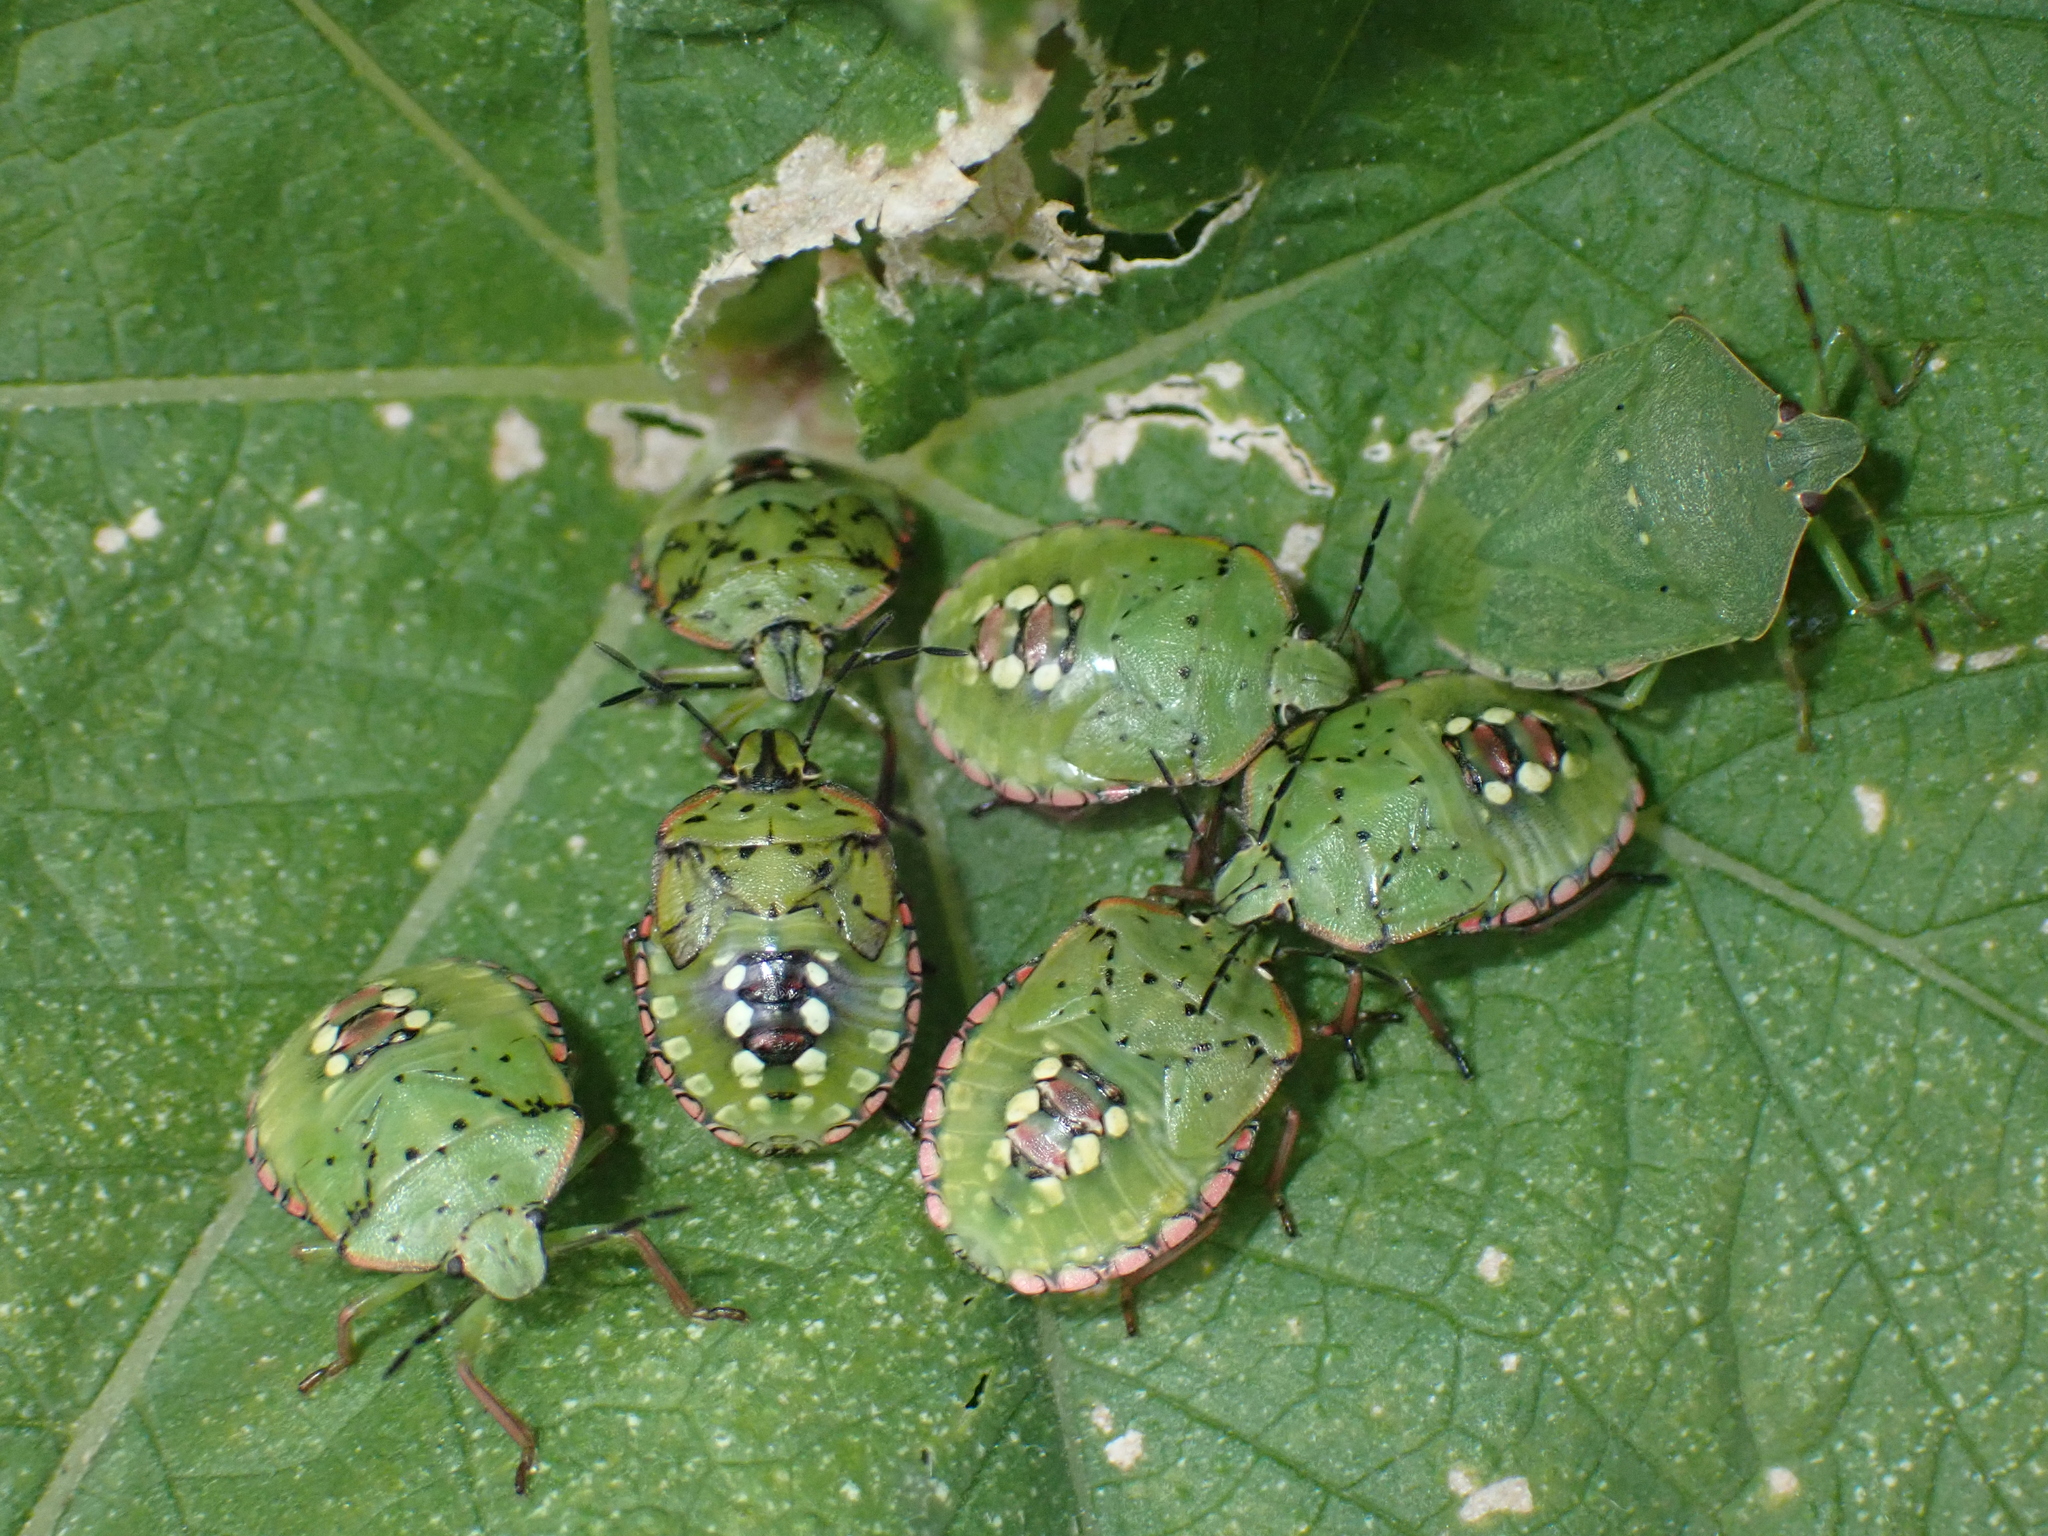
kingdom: Animalia
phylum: Arthropoda
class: Insecta
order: Hemiptera
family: Pentatomidae
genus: Nezara
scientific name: Nezara viridula
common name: Southern green stink bug
